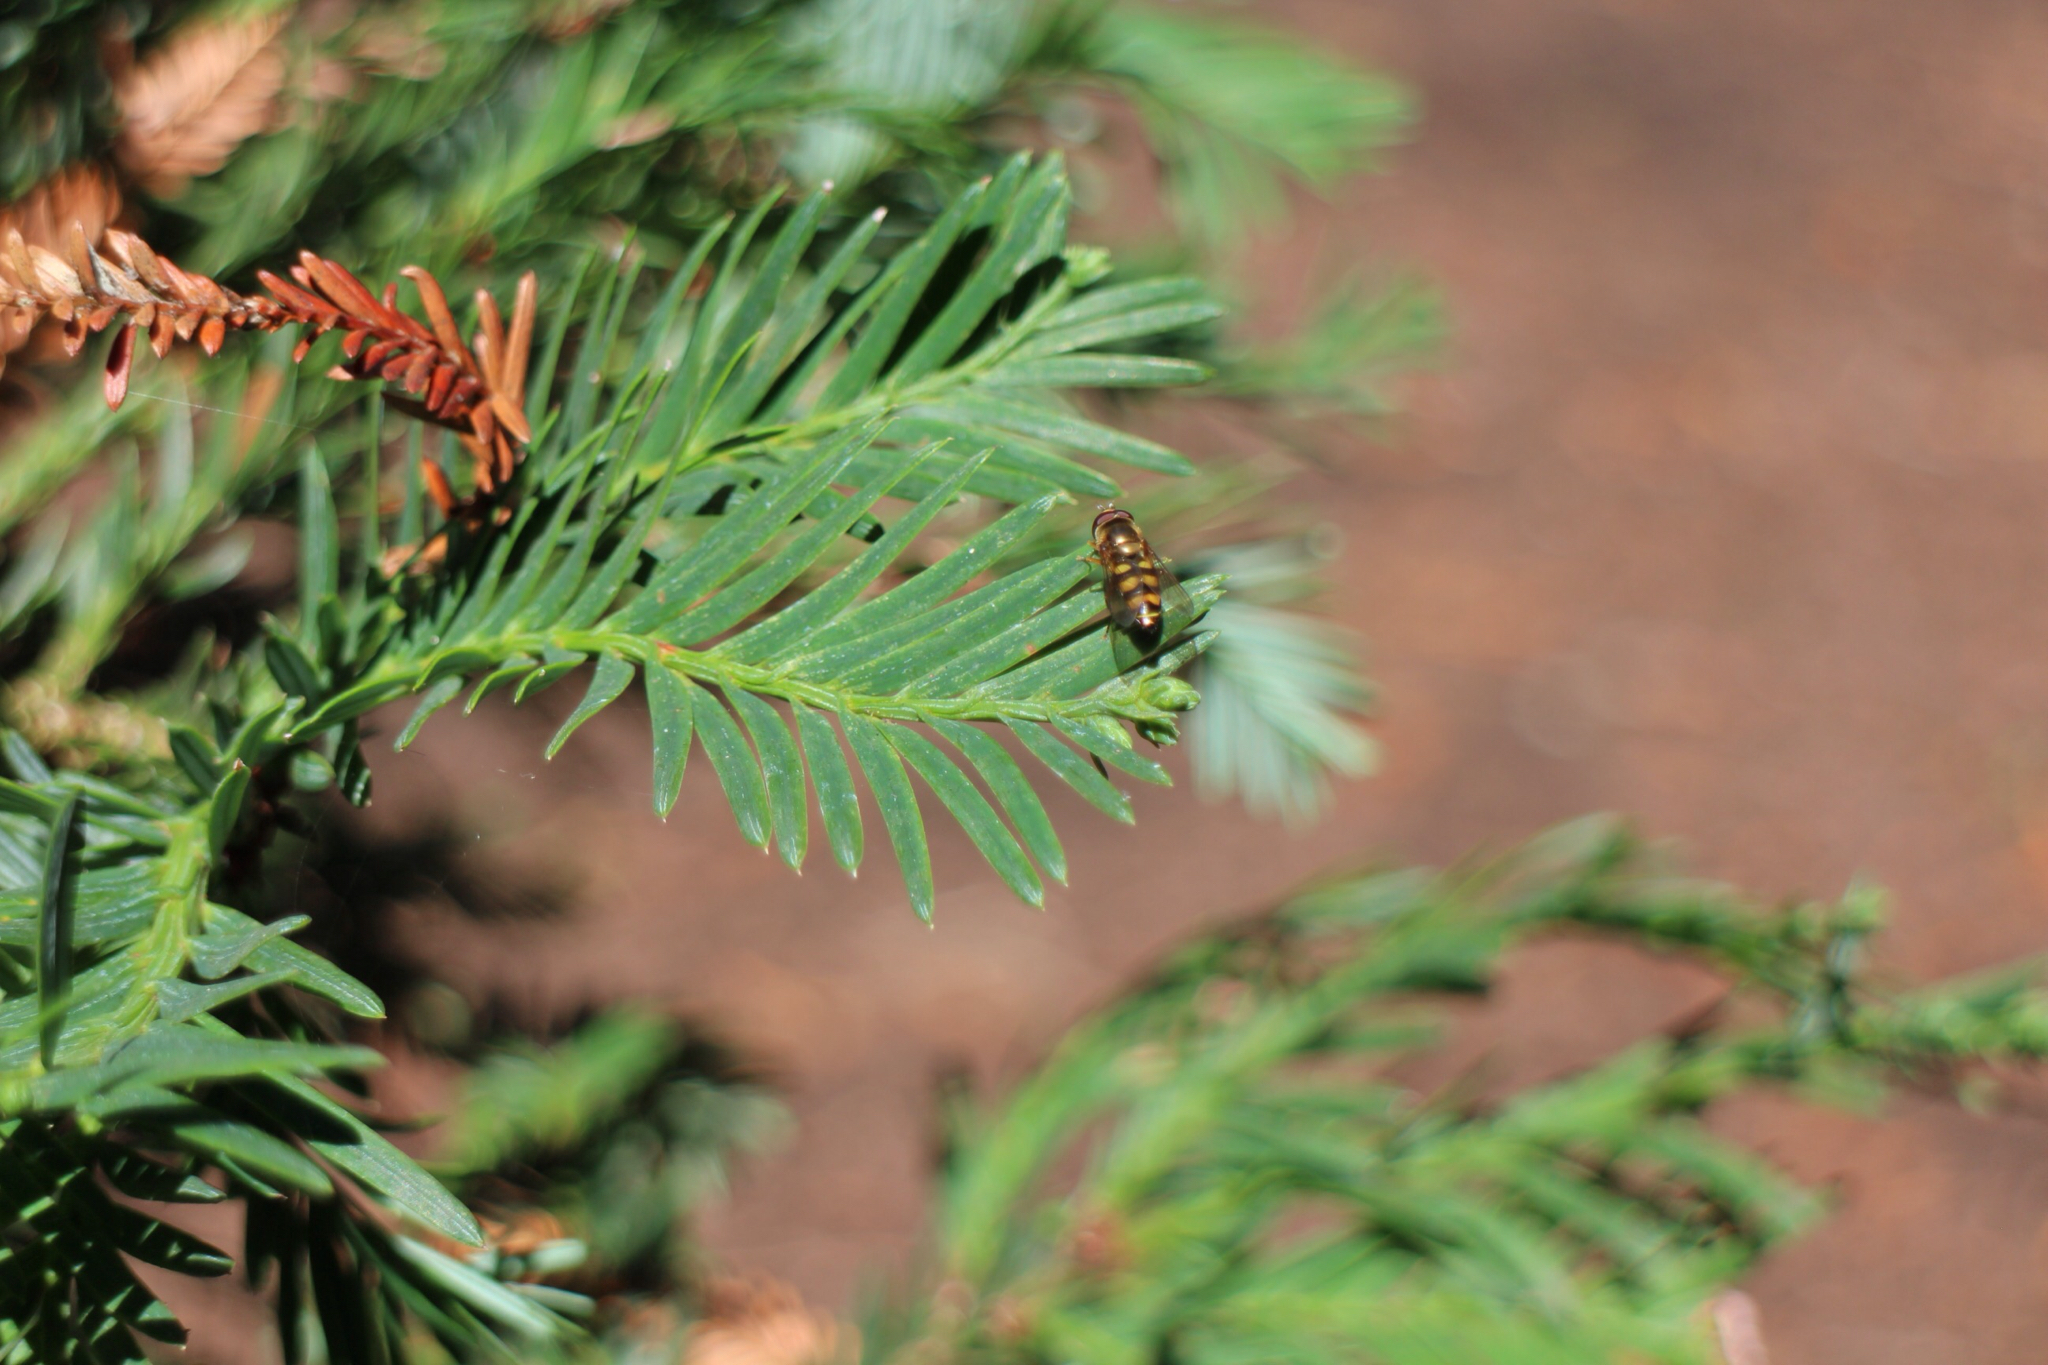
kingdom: Animalia
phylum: Arthropoda
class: Insecta
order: Diptera
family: Syrphidae
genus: Eupeodes
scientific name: Eupeodes fumipennis
